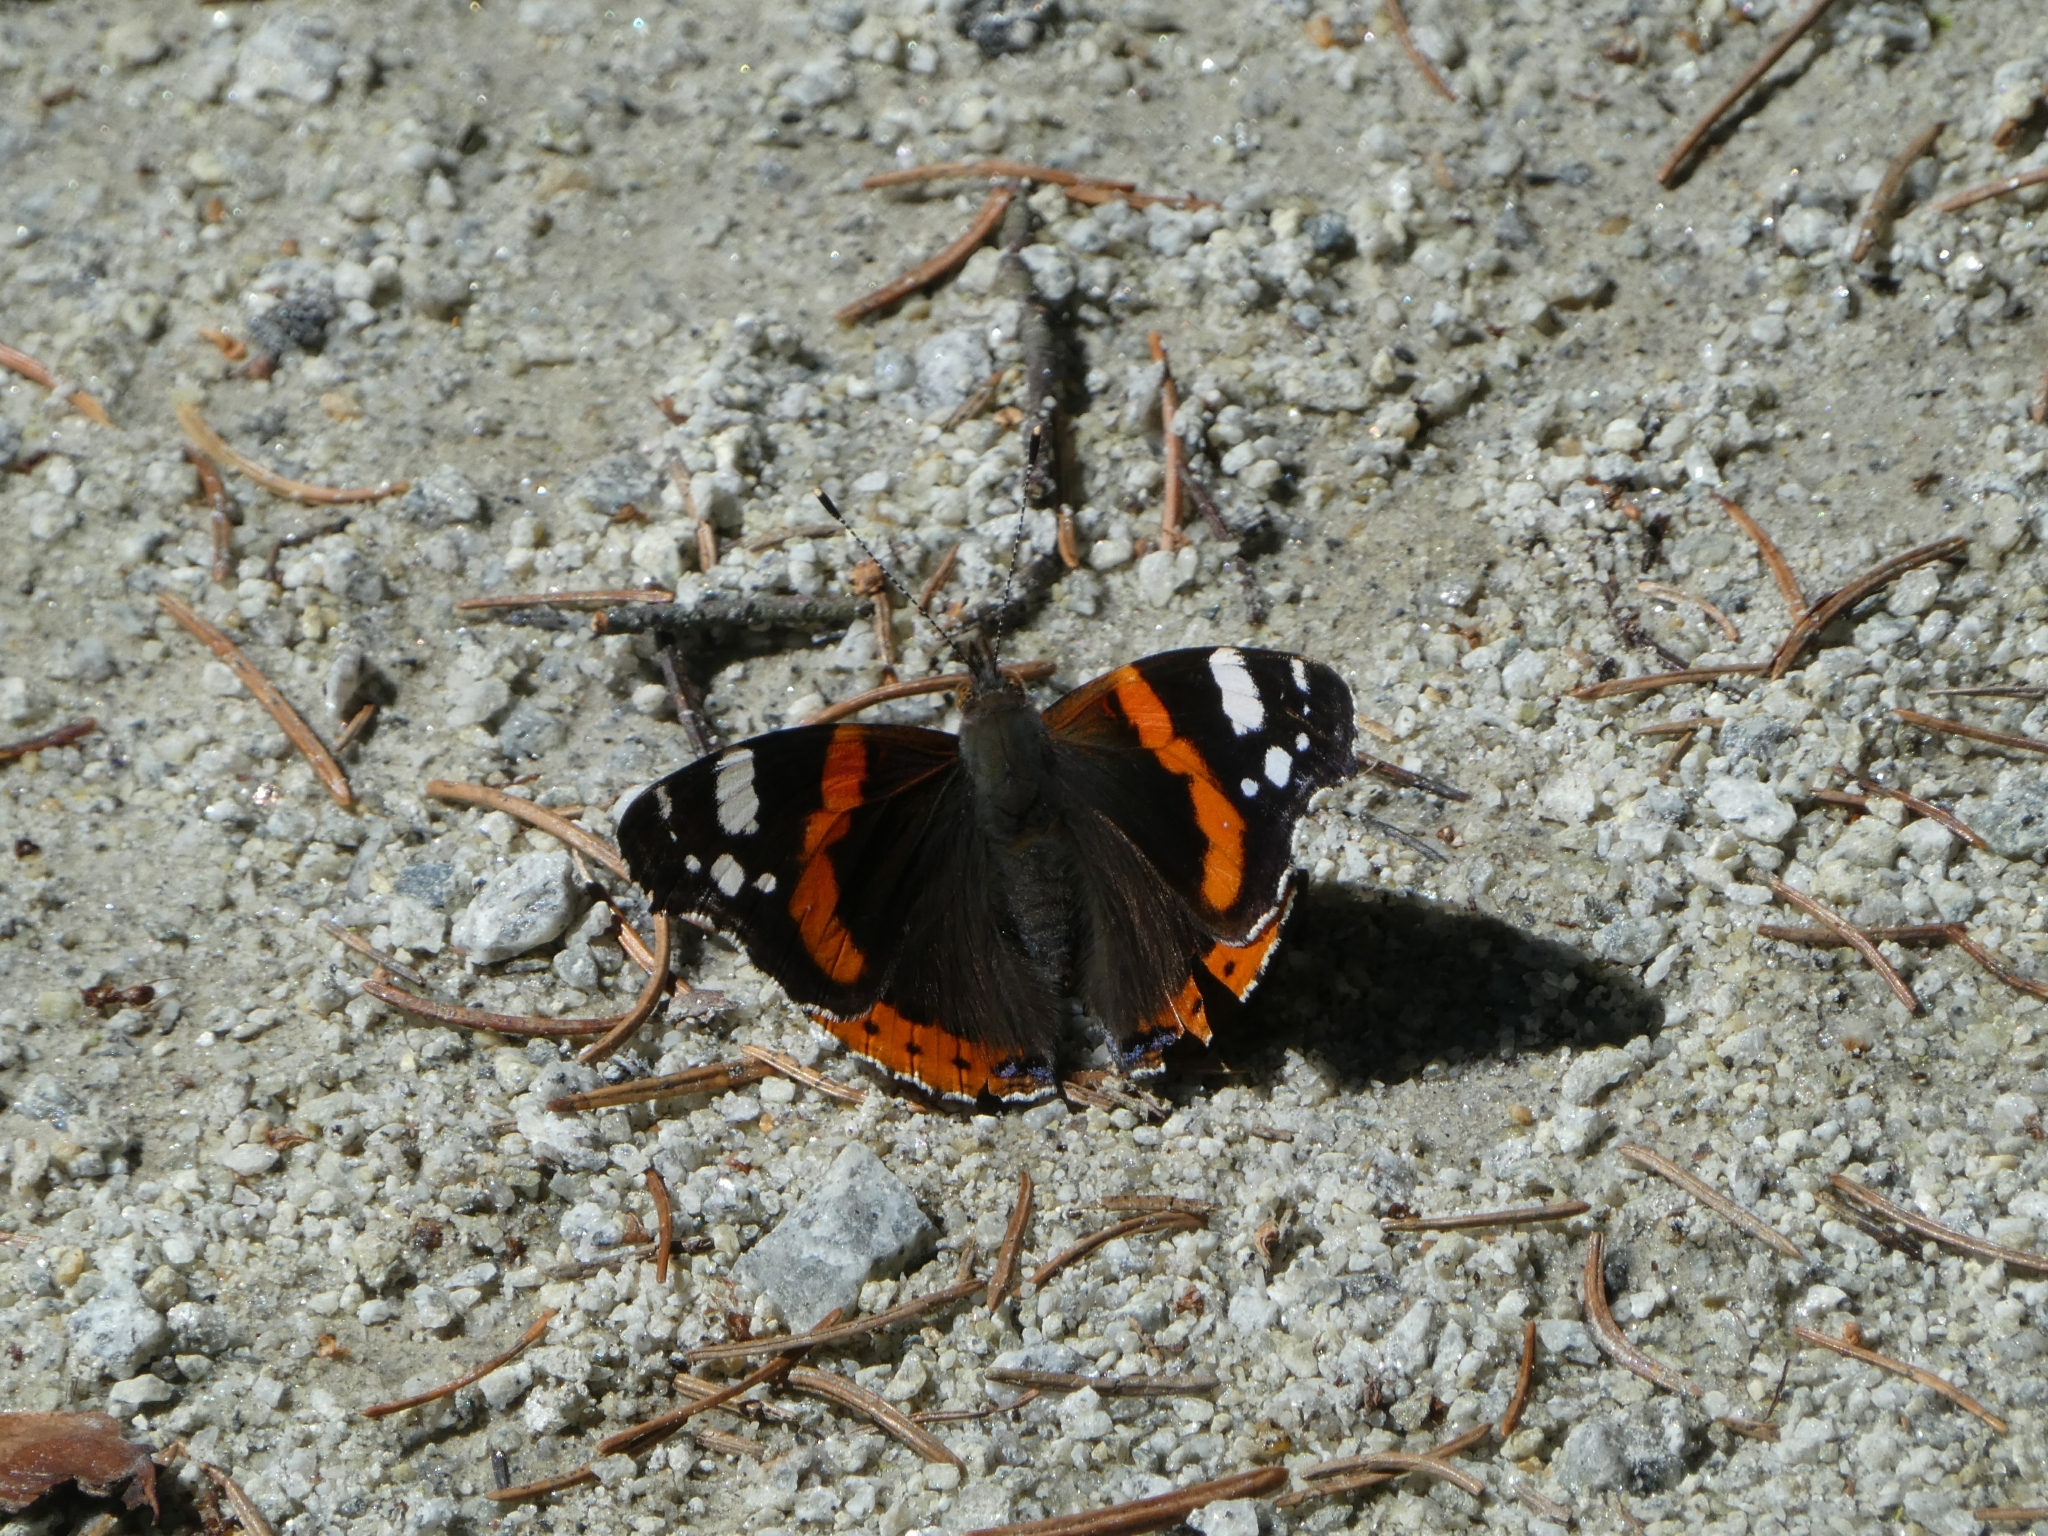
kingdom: Animalia
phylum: Arthropoda
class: Insecta
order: Lepidoptera
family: Nymphalidae
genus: Vanessa
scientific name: Vanessa atalanta
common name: Red admiral
